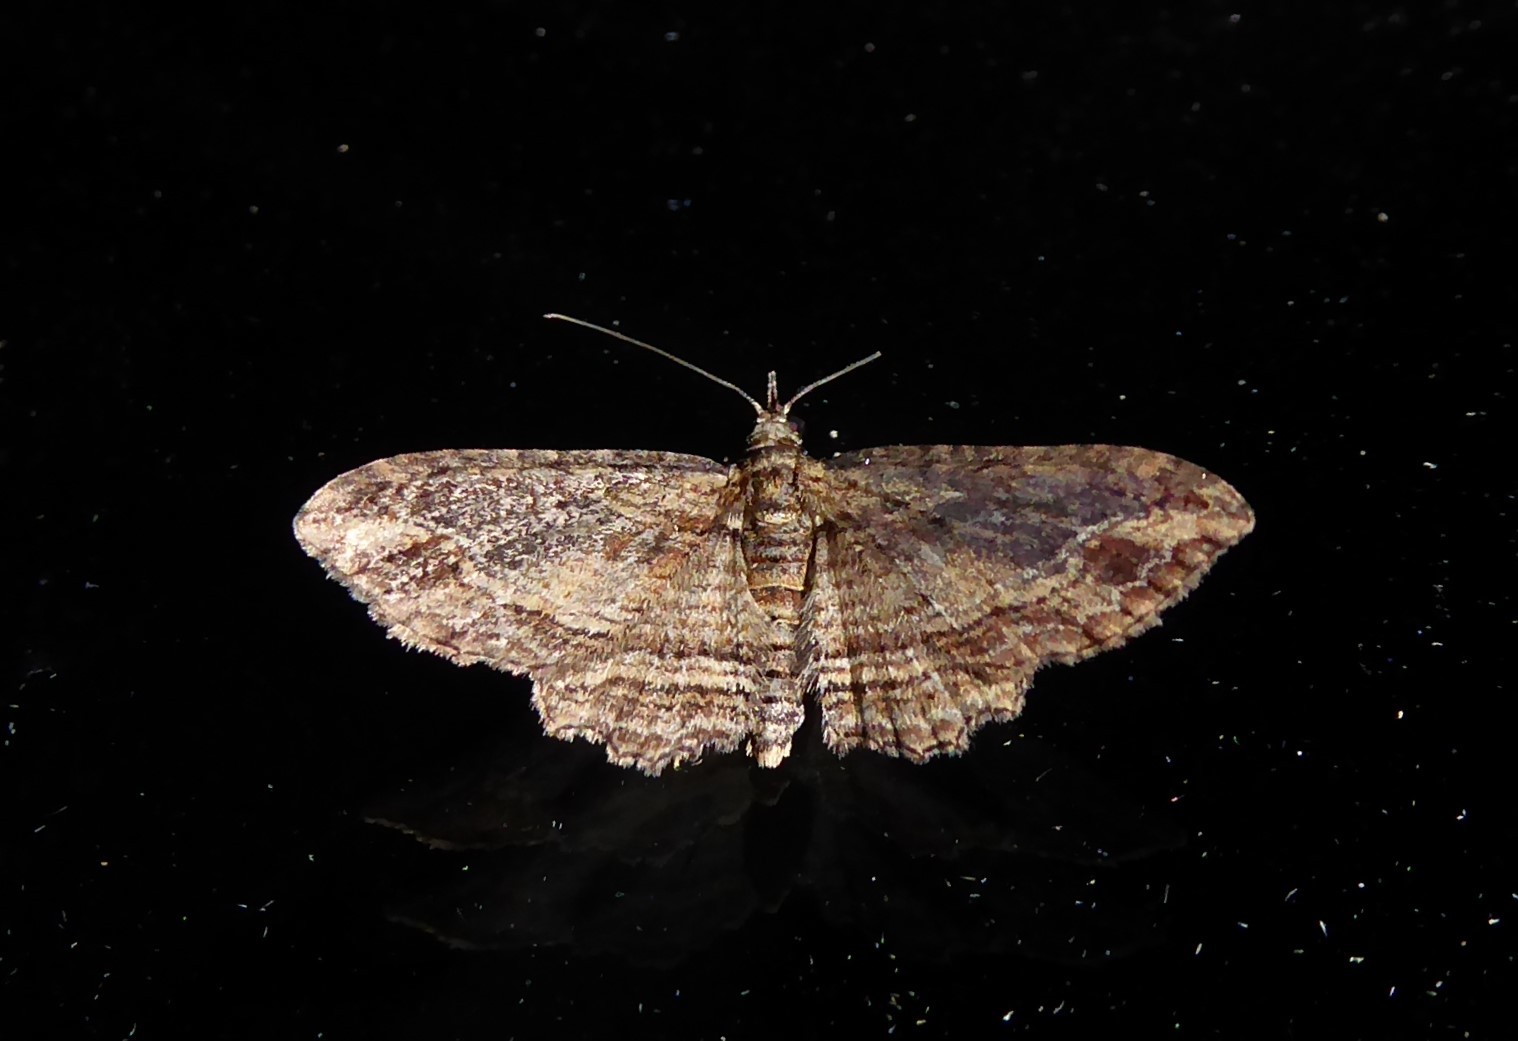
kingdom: Animalia
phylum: Arthropoda
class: Insecta
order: Lepidoptera
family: Geometridae
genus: Chloroclystis
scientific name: Chloroclystis filata
